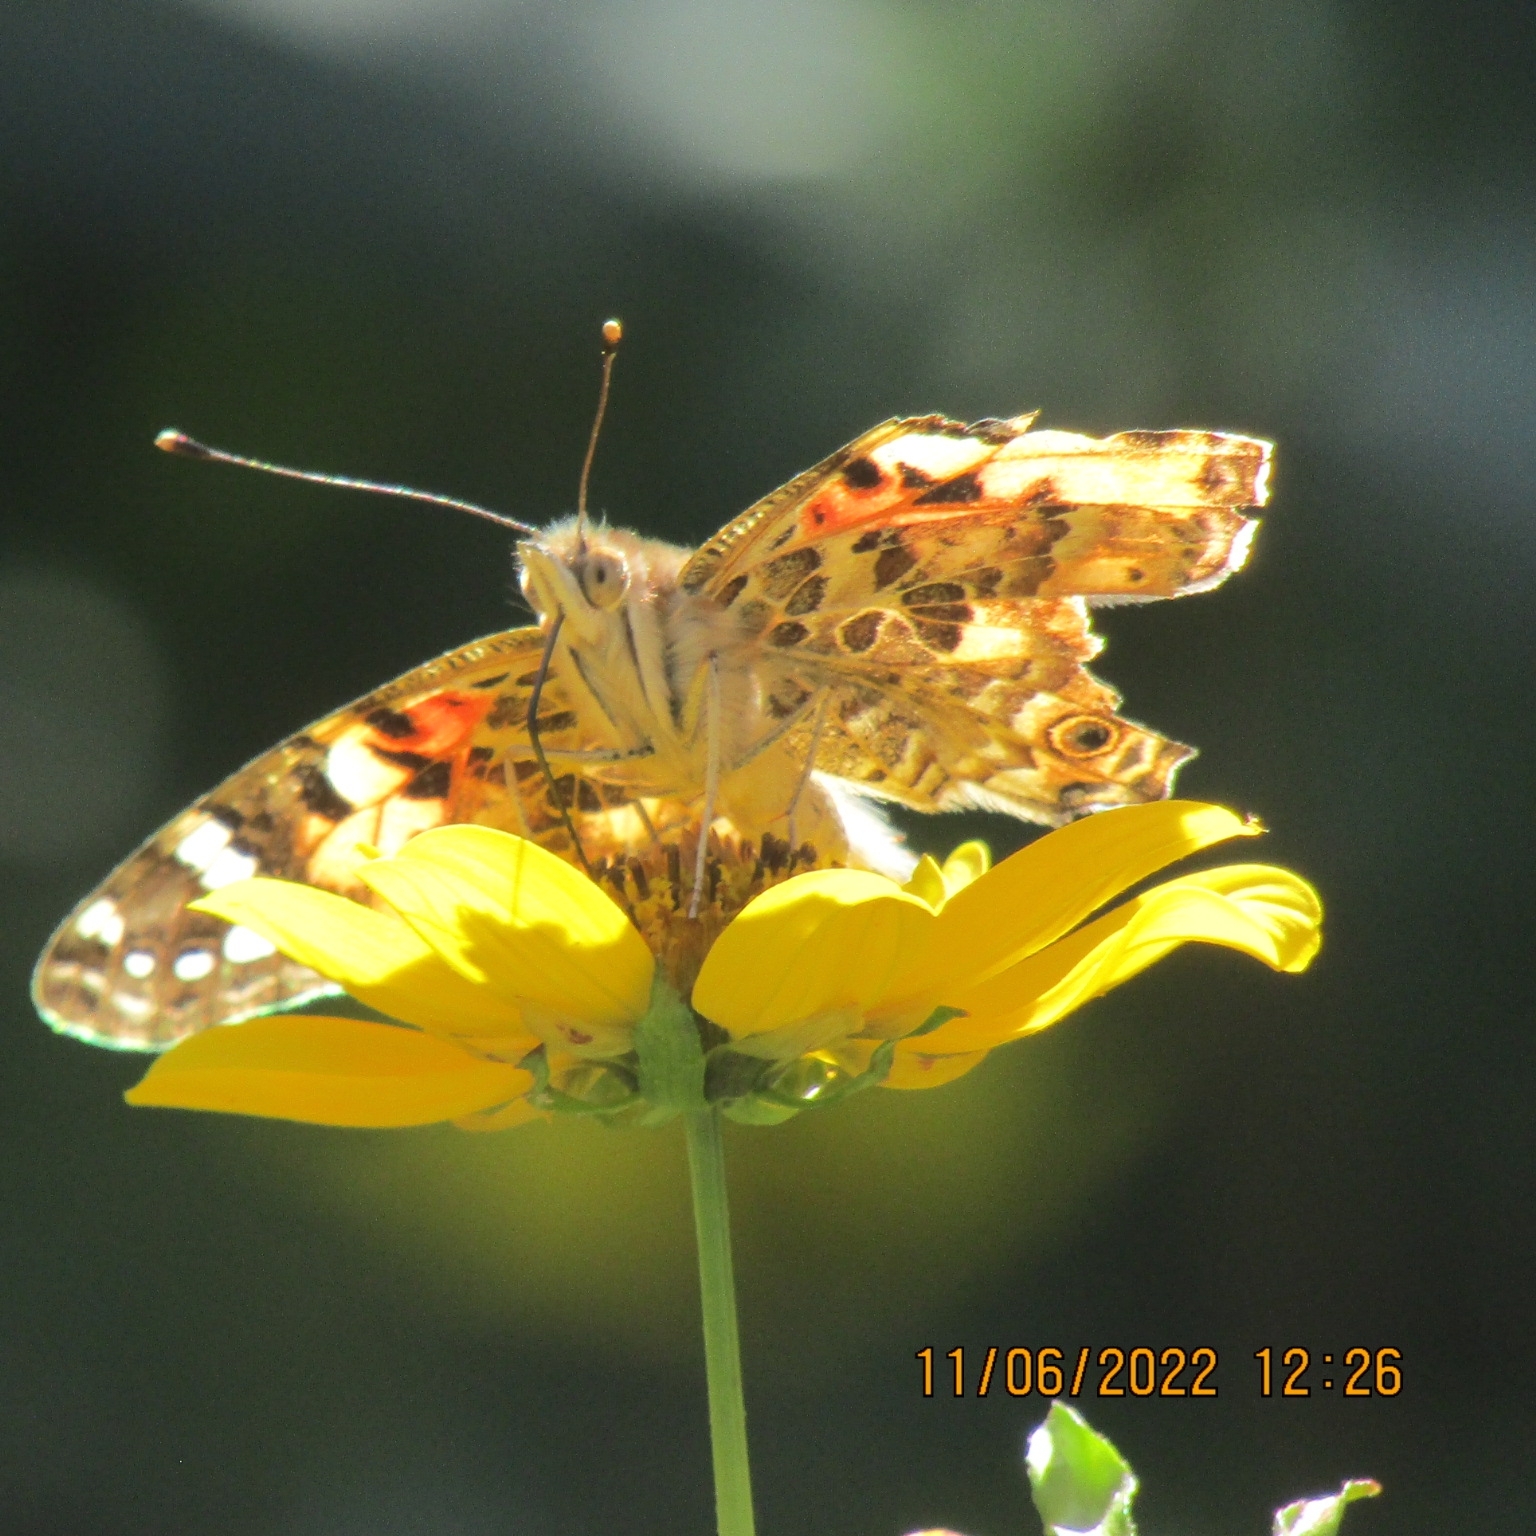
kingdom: Animalia
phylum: Arthropoda
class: Insecta
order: Lepidoptera
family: Nymphalidae
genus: Vanessa
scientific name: Vanessa cardui
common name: Painted lady
